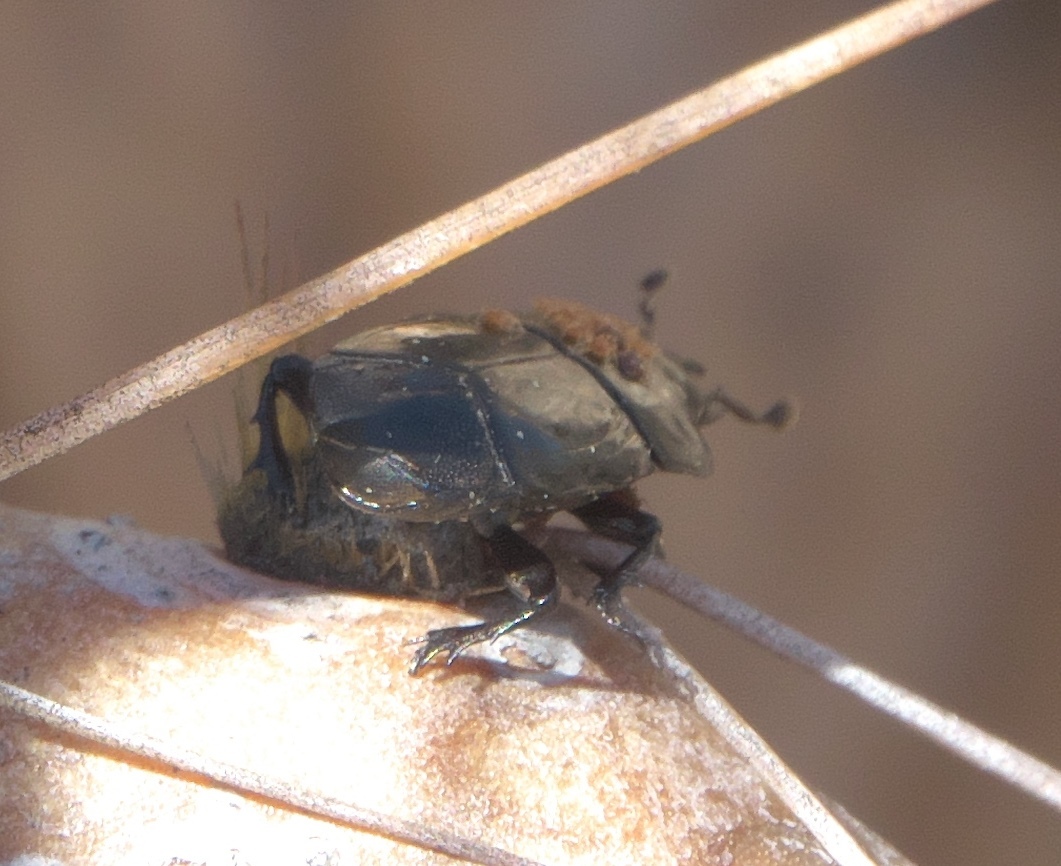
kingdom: Animalia
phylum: Arthropoda
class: Insecta
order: Coleoptera
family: Histeridae
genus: Iliotona
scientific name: Iliotona cacti
